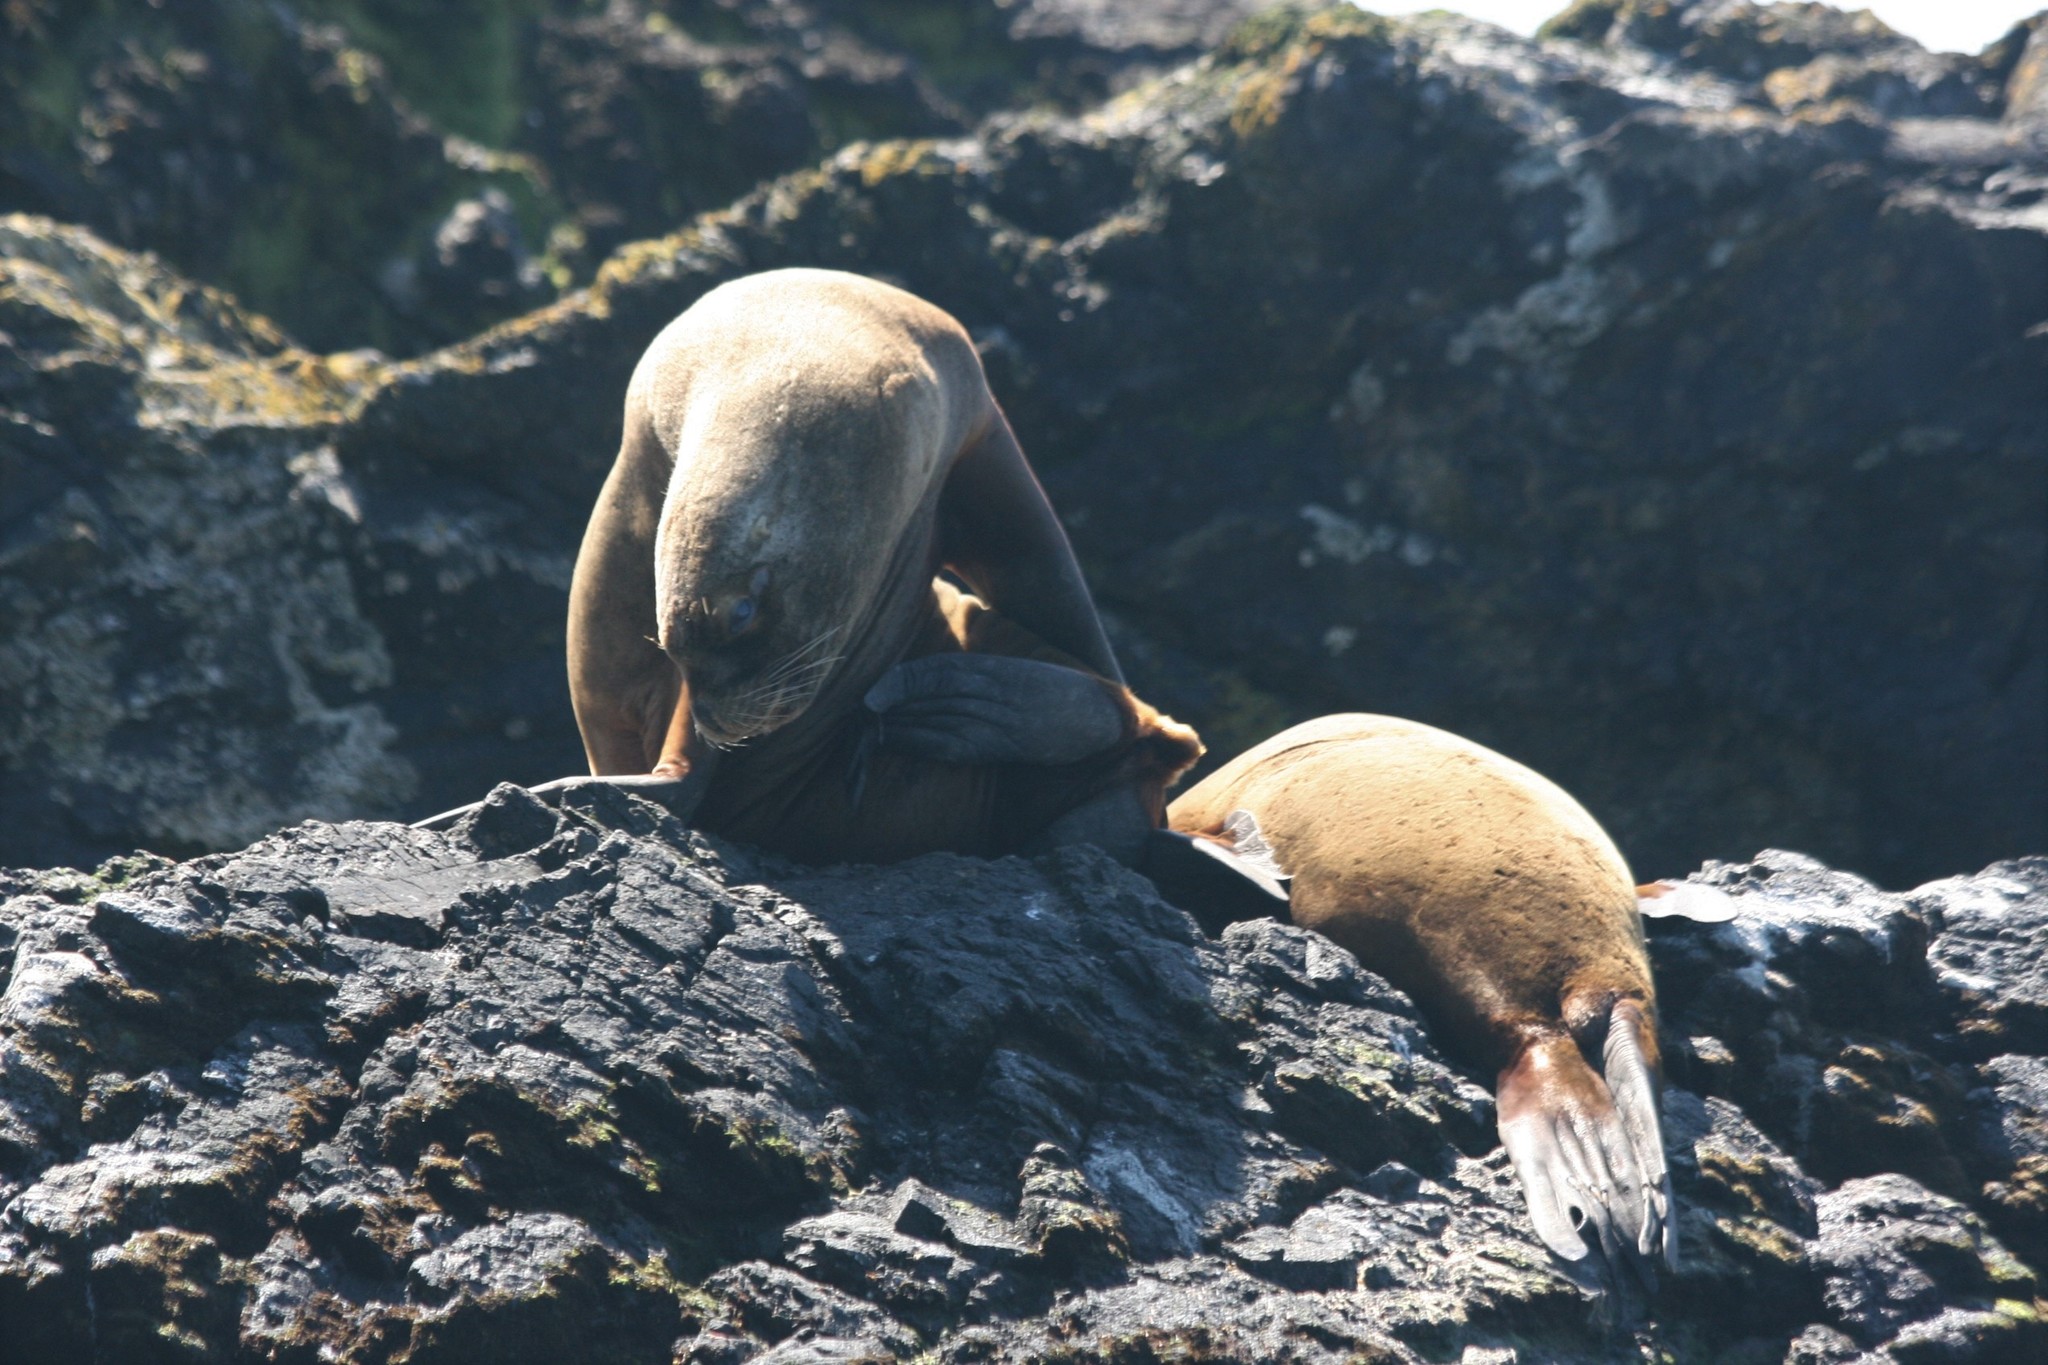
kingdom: Animalia
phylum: Chordata
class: Mammalia
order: Carnivora
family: Otariidae
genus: Otaria
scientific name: Otaria byronia
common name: South american sea lion
